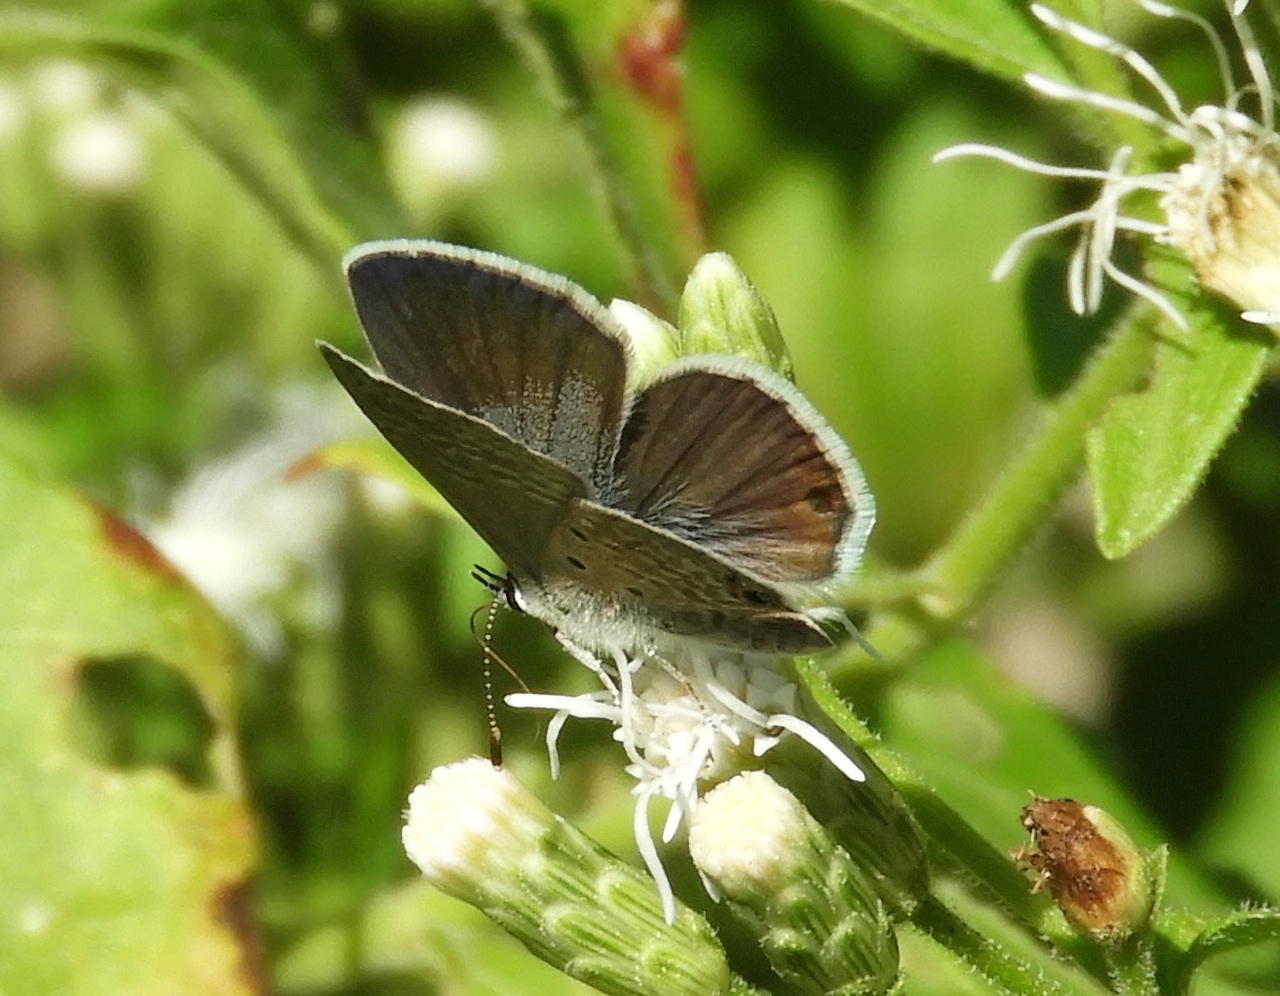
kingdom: Animalia
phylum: Arthropoda
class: Insecta
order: Lepidoptera
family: Lycaenidae
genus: Echinargus
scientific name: Echinargus isola
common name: Reakirt's blue
